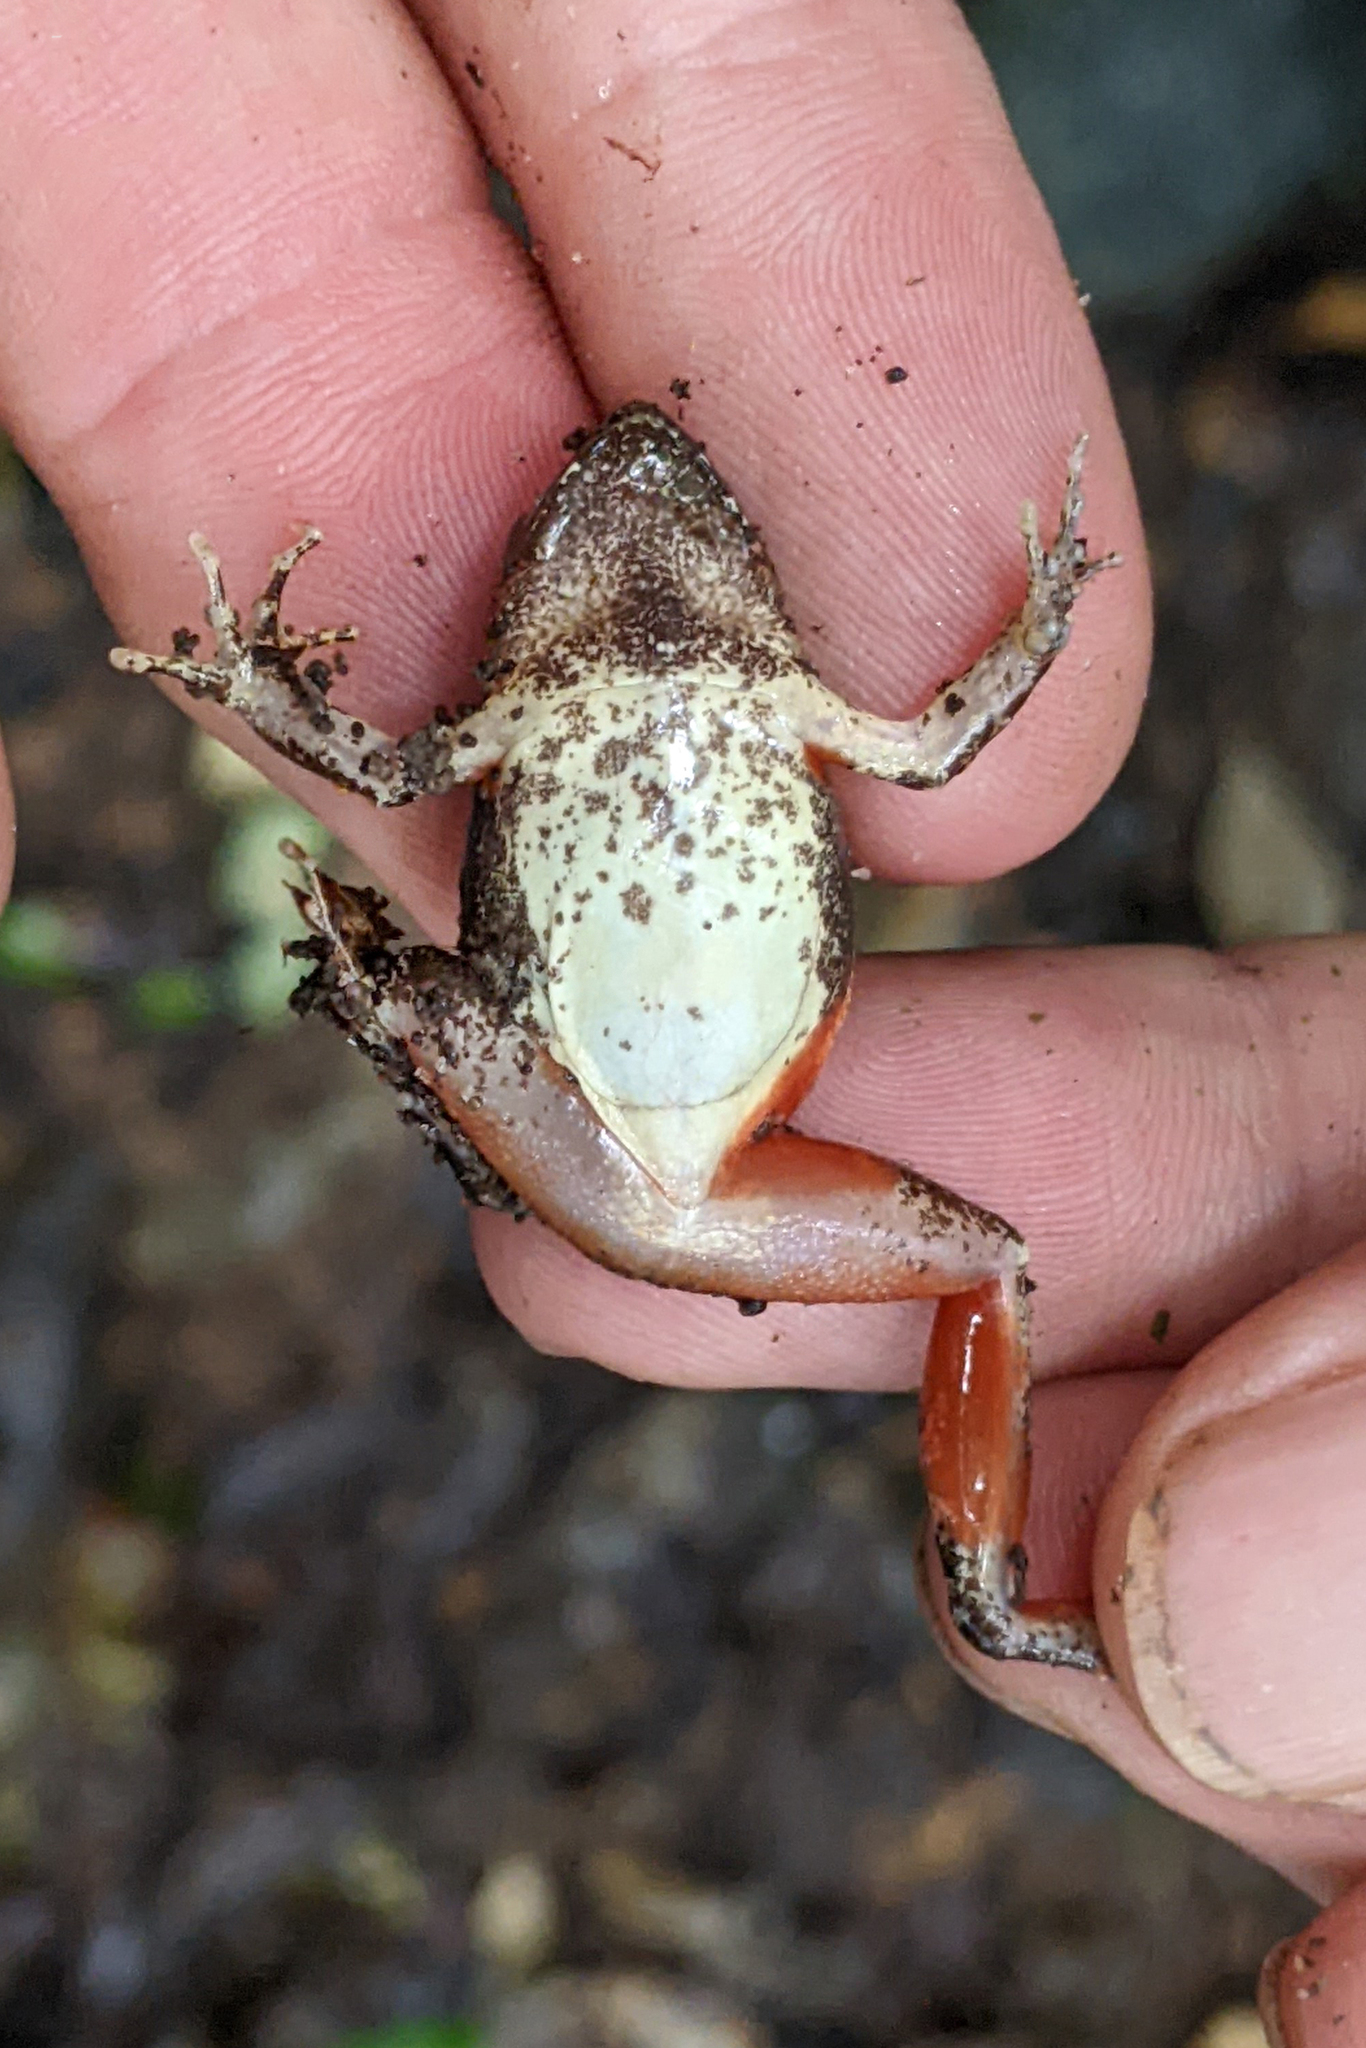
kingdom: Animalia
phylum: Chordata
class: Amphibia
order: Anura
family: Leptodactylidae
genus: Physalaemus
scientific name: Physalaemus ephippifer
